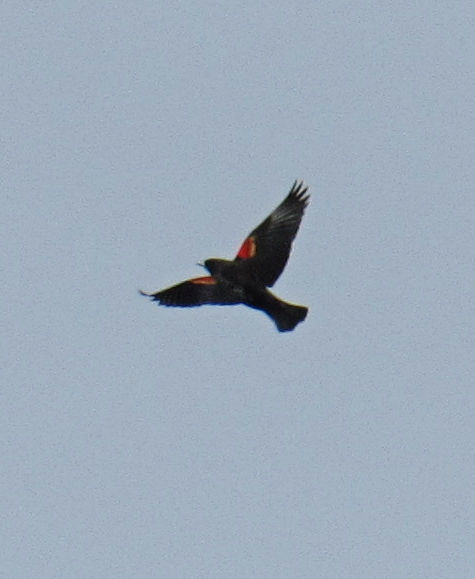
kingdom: Animalia
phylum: Chordata
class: Aves
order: Passeriformes
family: Icteridae
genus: Agelaius
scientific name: Agelaius phoeniceus
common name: Red-winged blackbird
